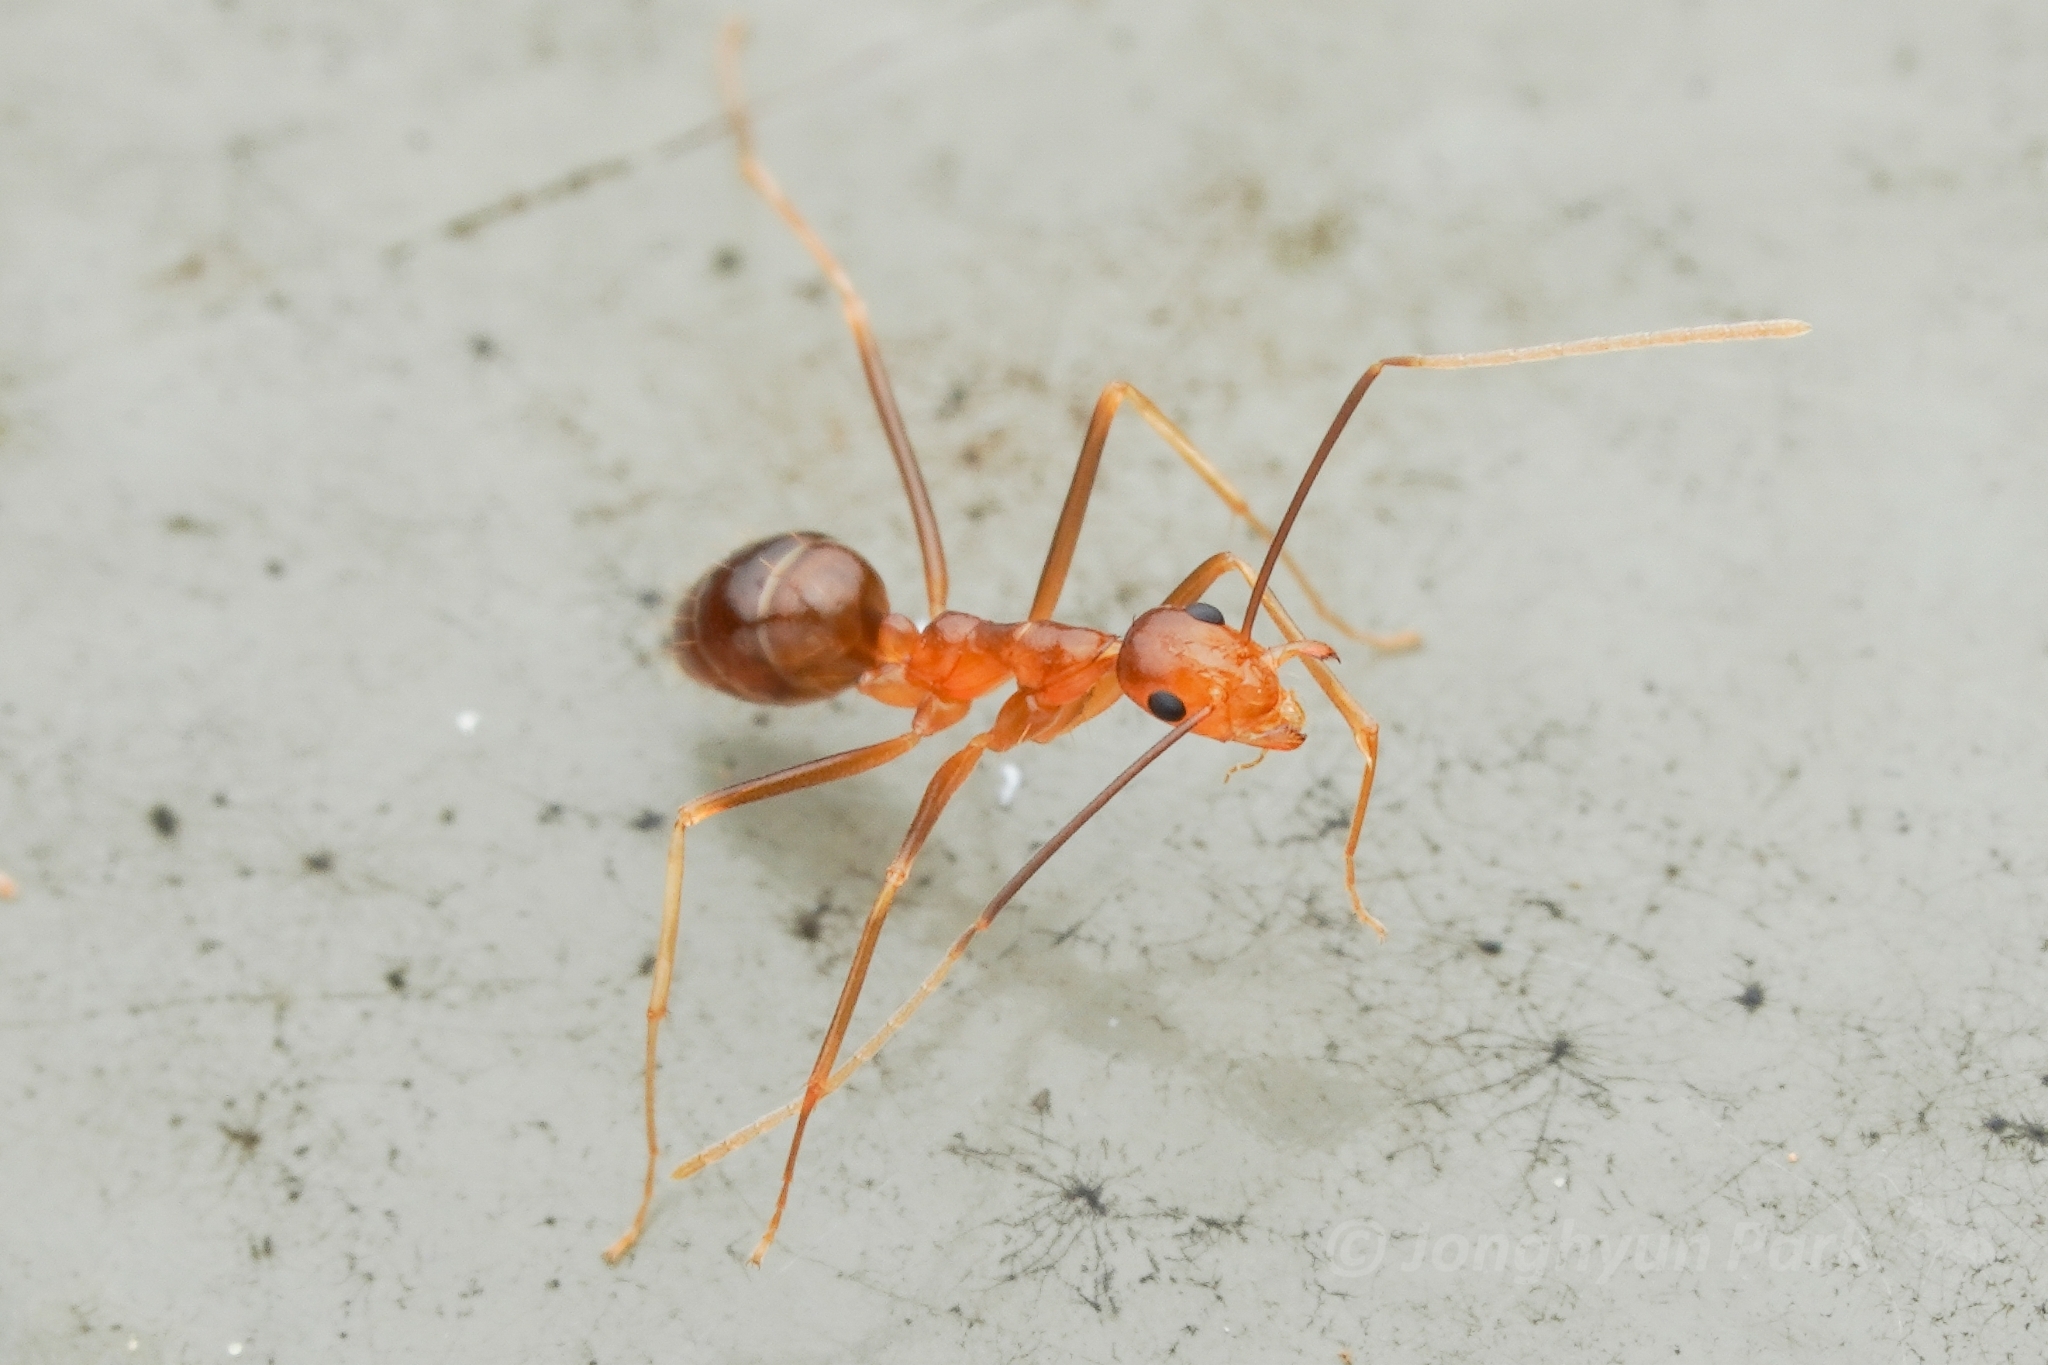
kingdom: Animalia
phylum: Arthropoda
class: Insecta
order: Hymenoptera
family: Formicidae
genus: Anoplolepis
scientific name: Anoplolepis gracilipes
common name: Ant
